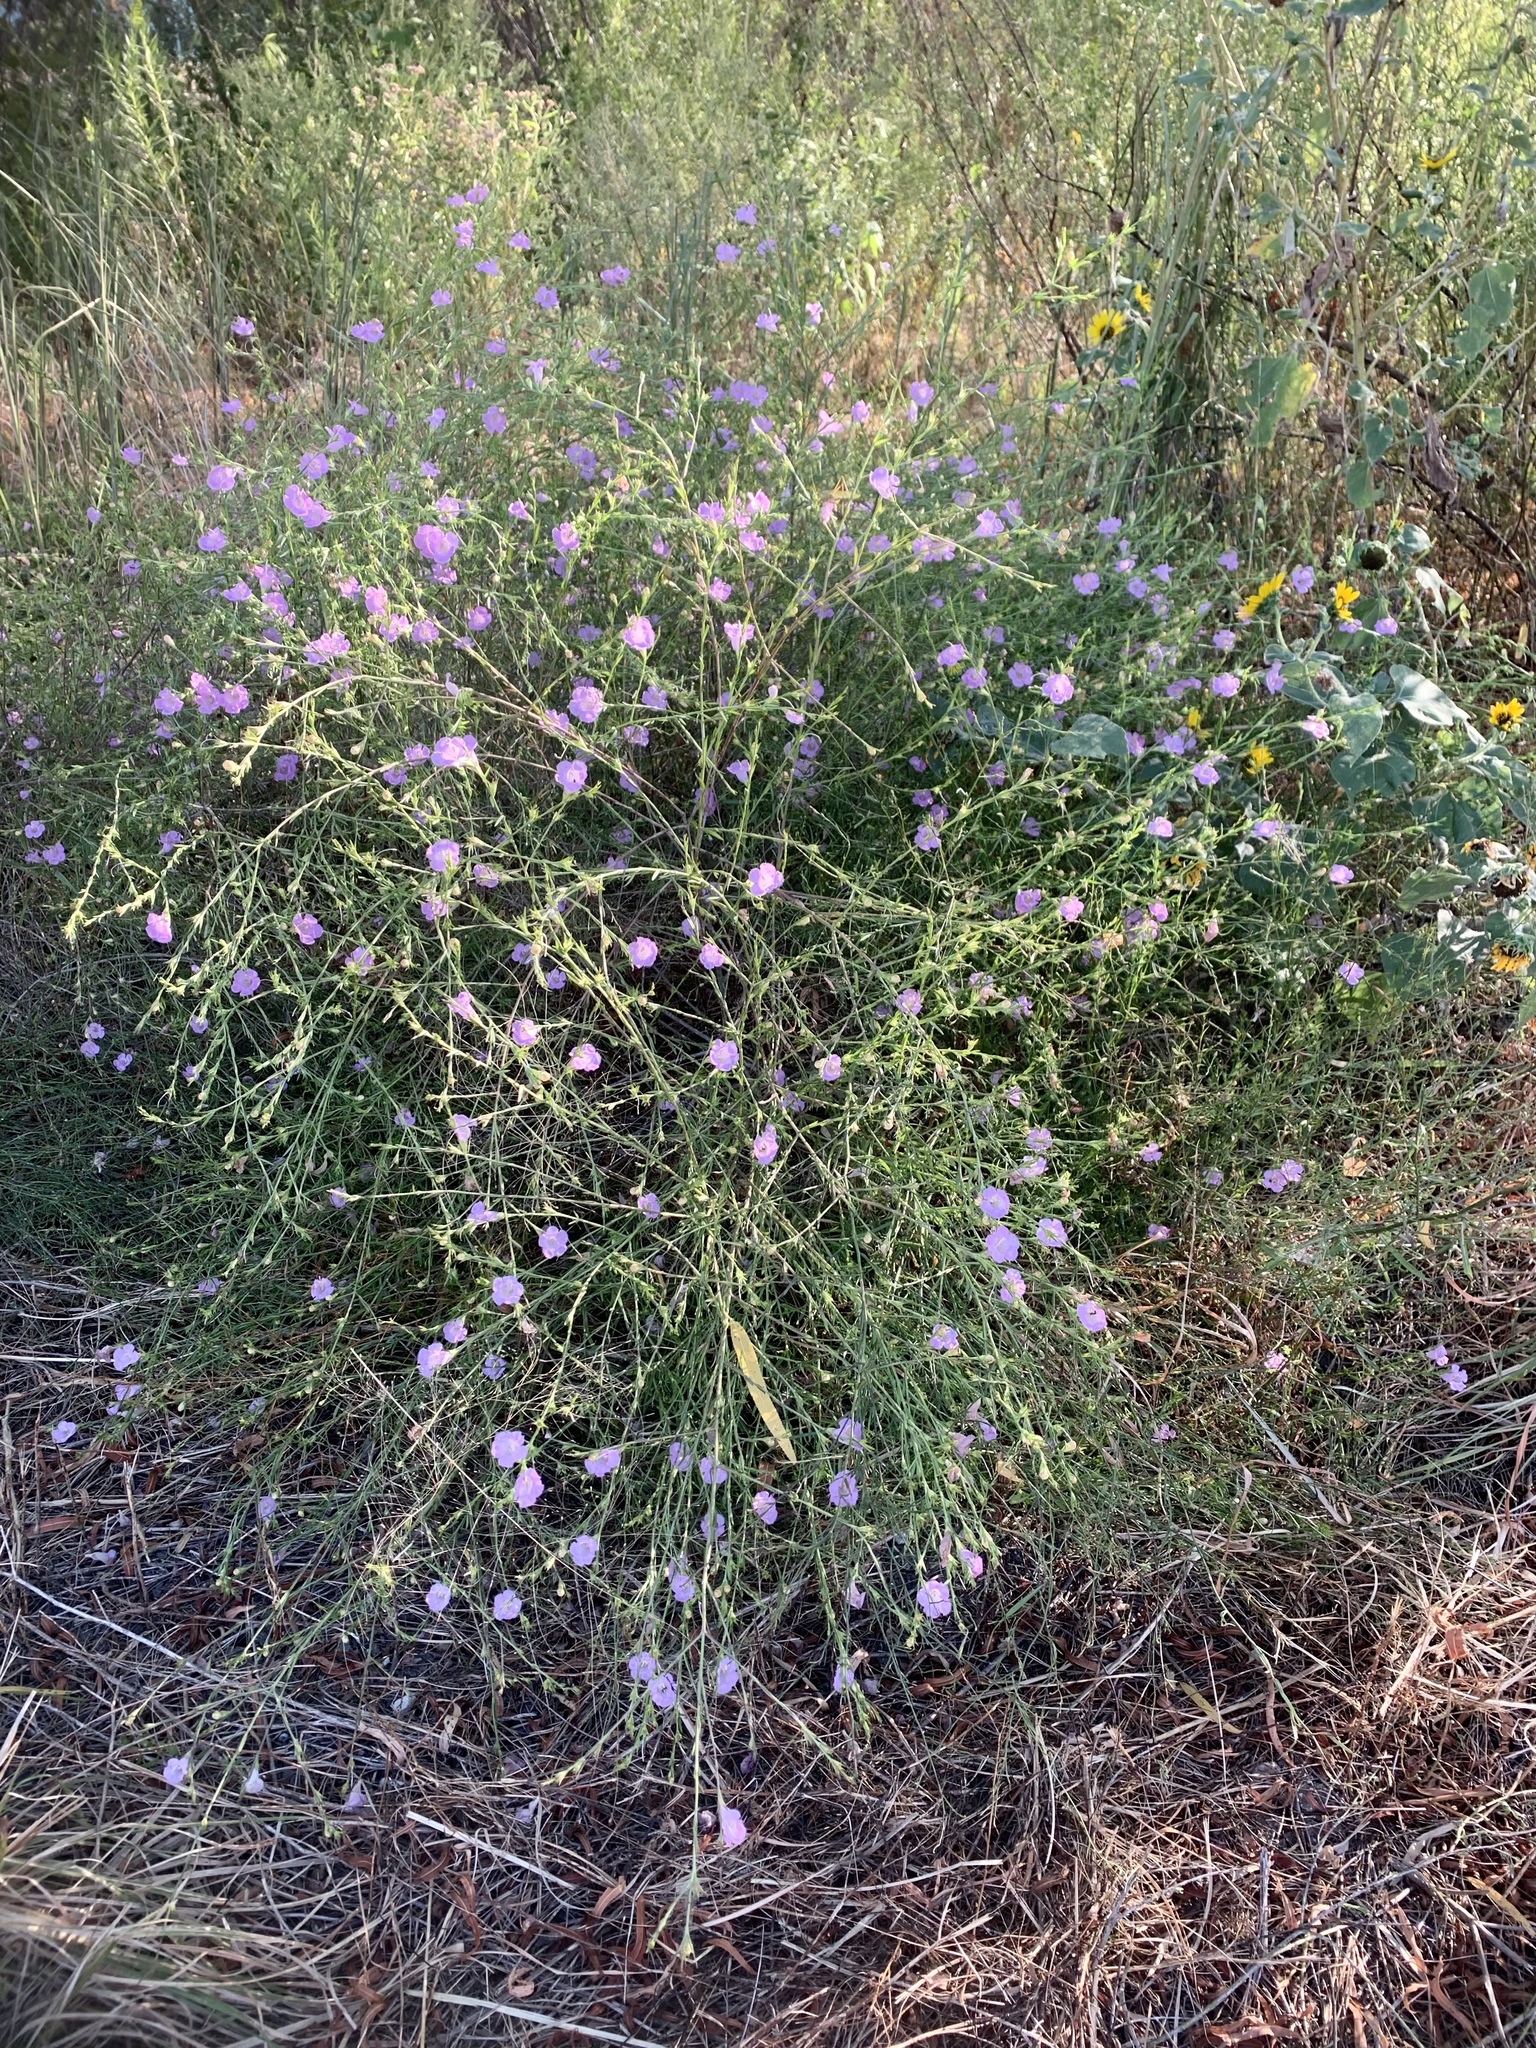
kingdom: Plantae
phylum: Tracheophyta
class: Magnoliopsida
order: Lamiales
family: Orobanchaceae
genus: Agalinis
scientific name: Agalinis heterophylla
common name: Prairie agalinis
